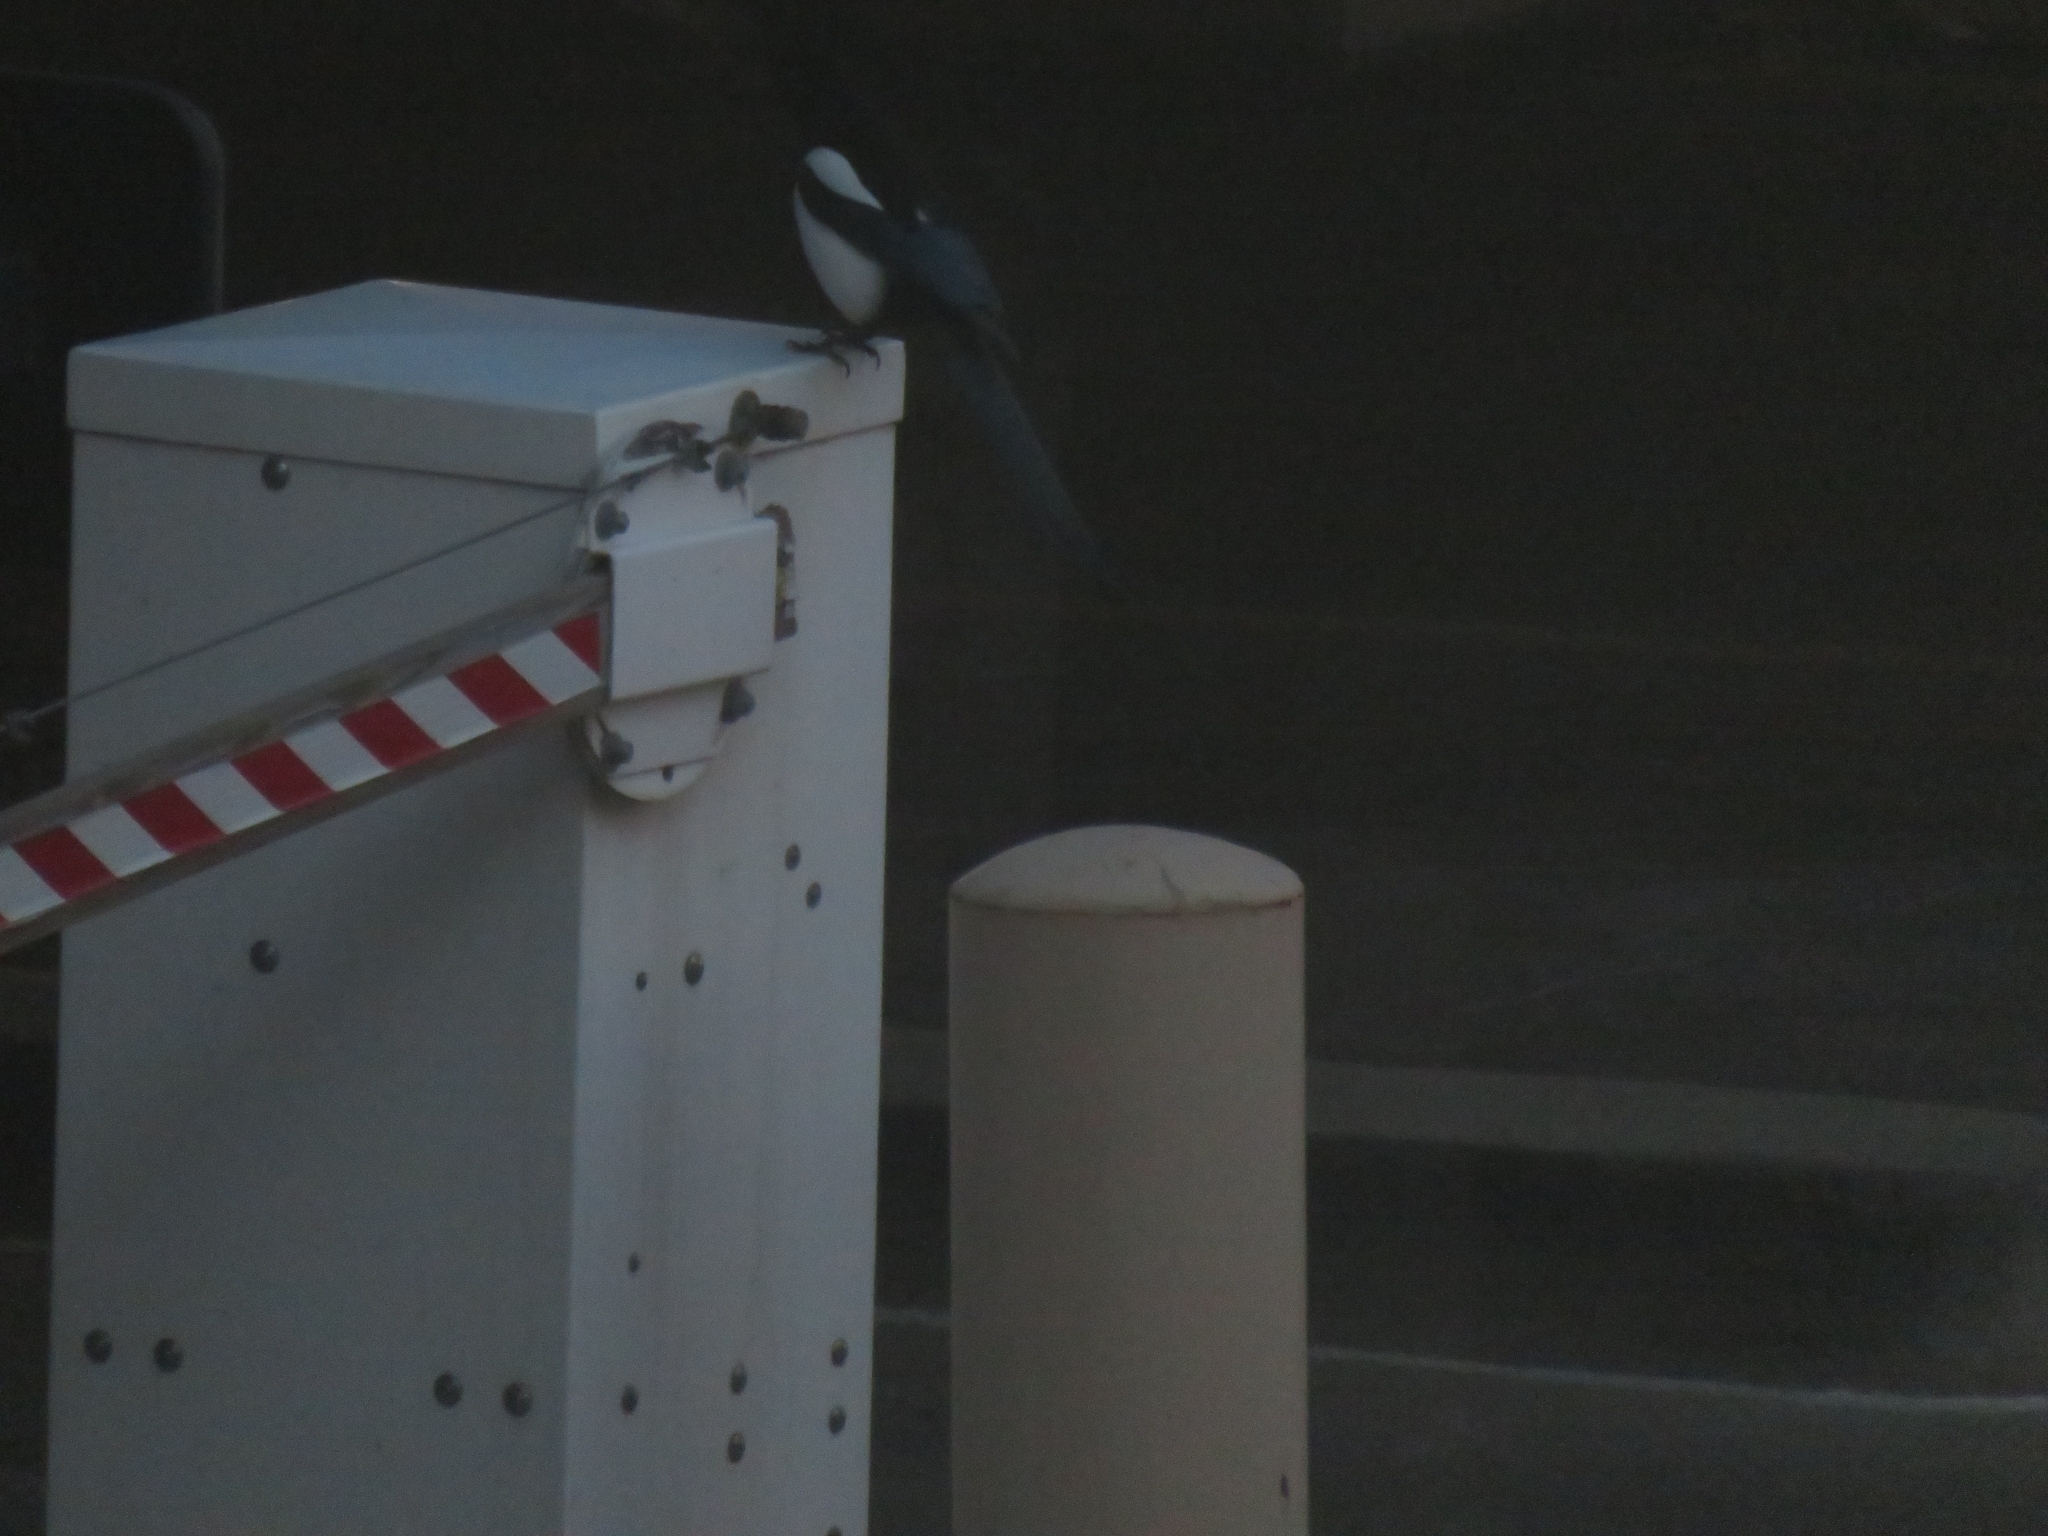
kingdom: Animalia
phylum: Chordata
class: Aves
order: Passeriformes
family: Corvidae
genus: Pica
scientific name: Pica hudsonia
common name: Black-billed magpie
